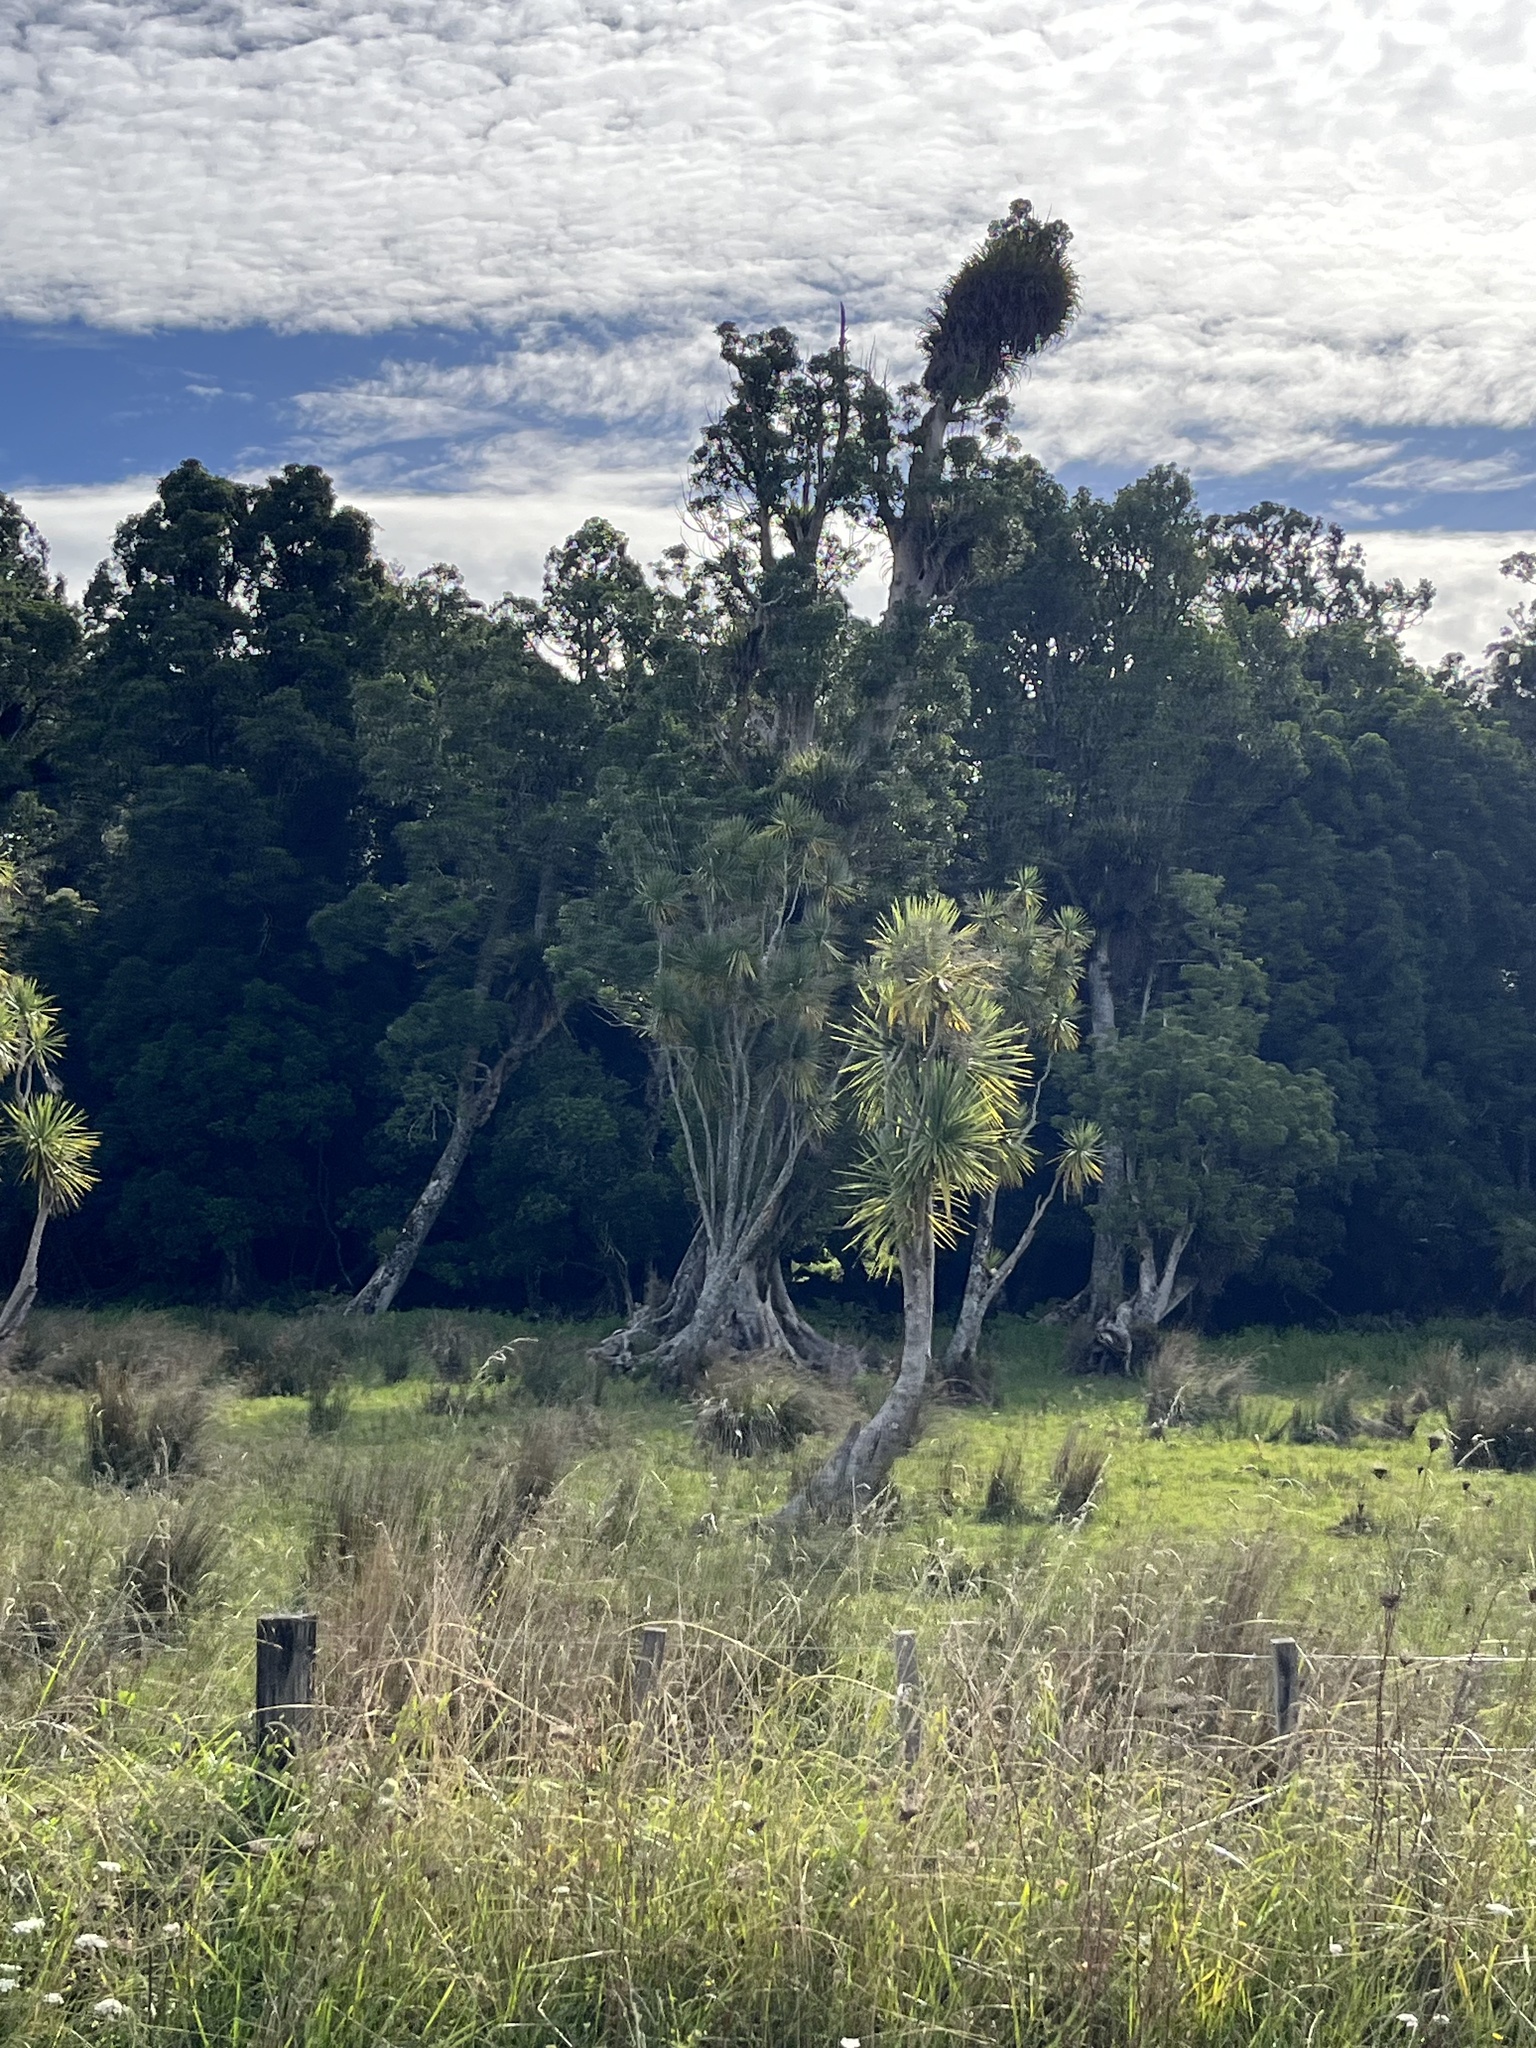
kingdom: Plantae
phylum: Tracheophyta
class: Magnoliopsida
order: Laurales
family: Atherospermataceae
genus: Laurelia
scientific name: Laurelia novae-zelandiae
